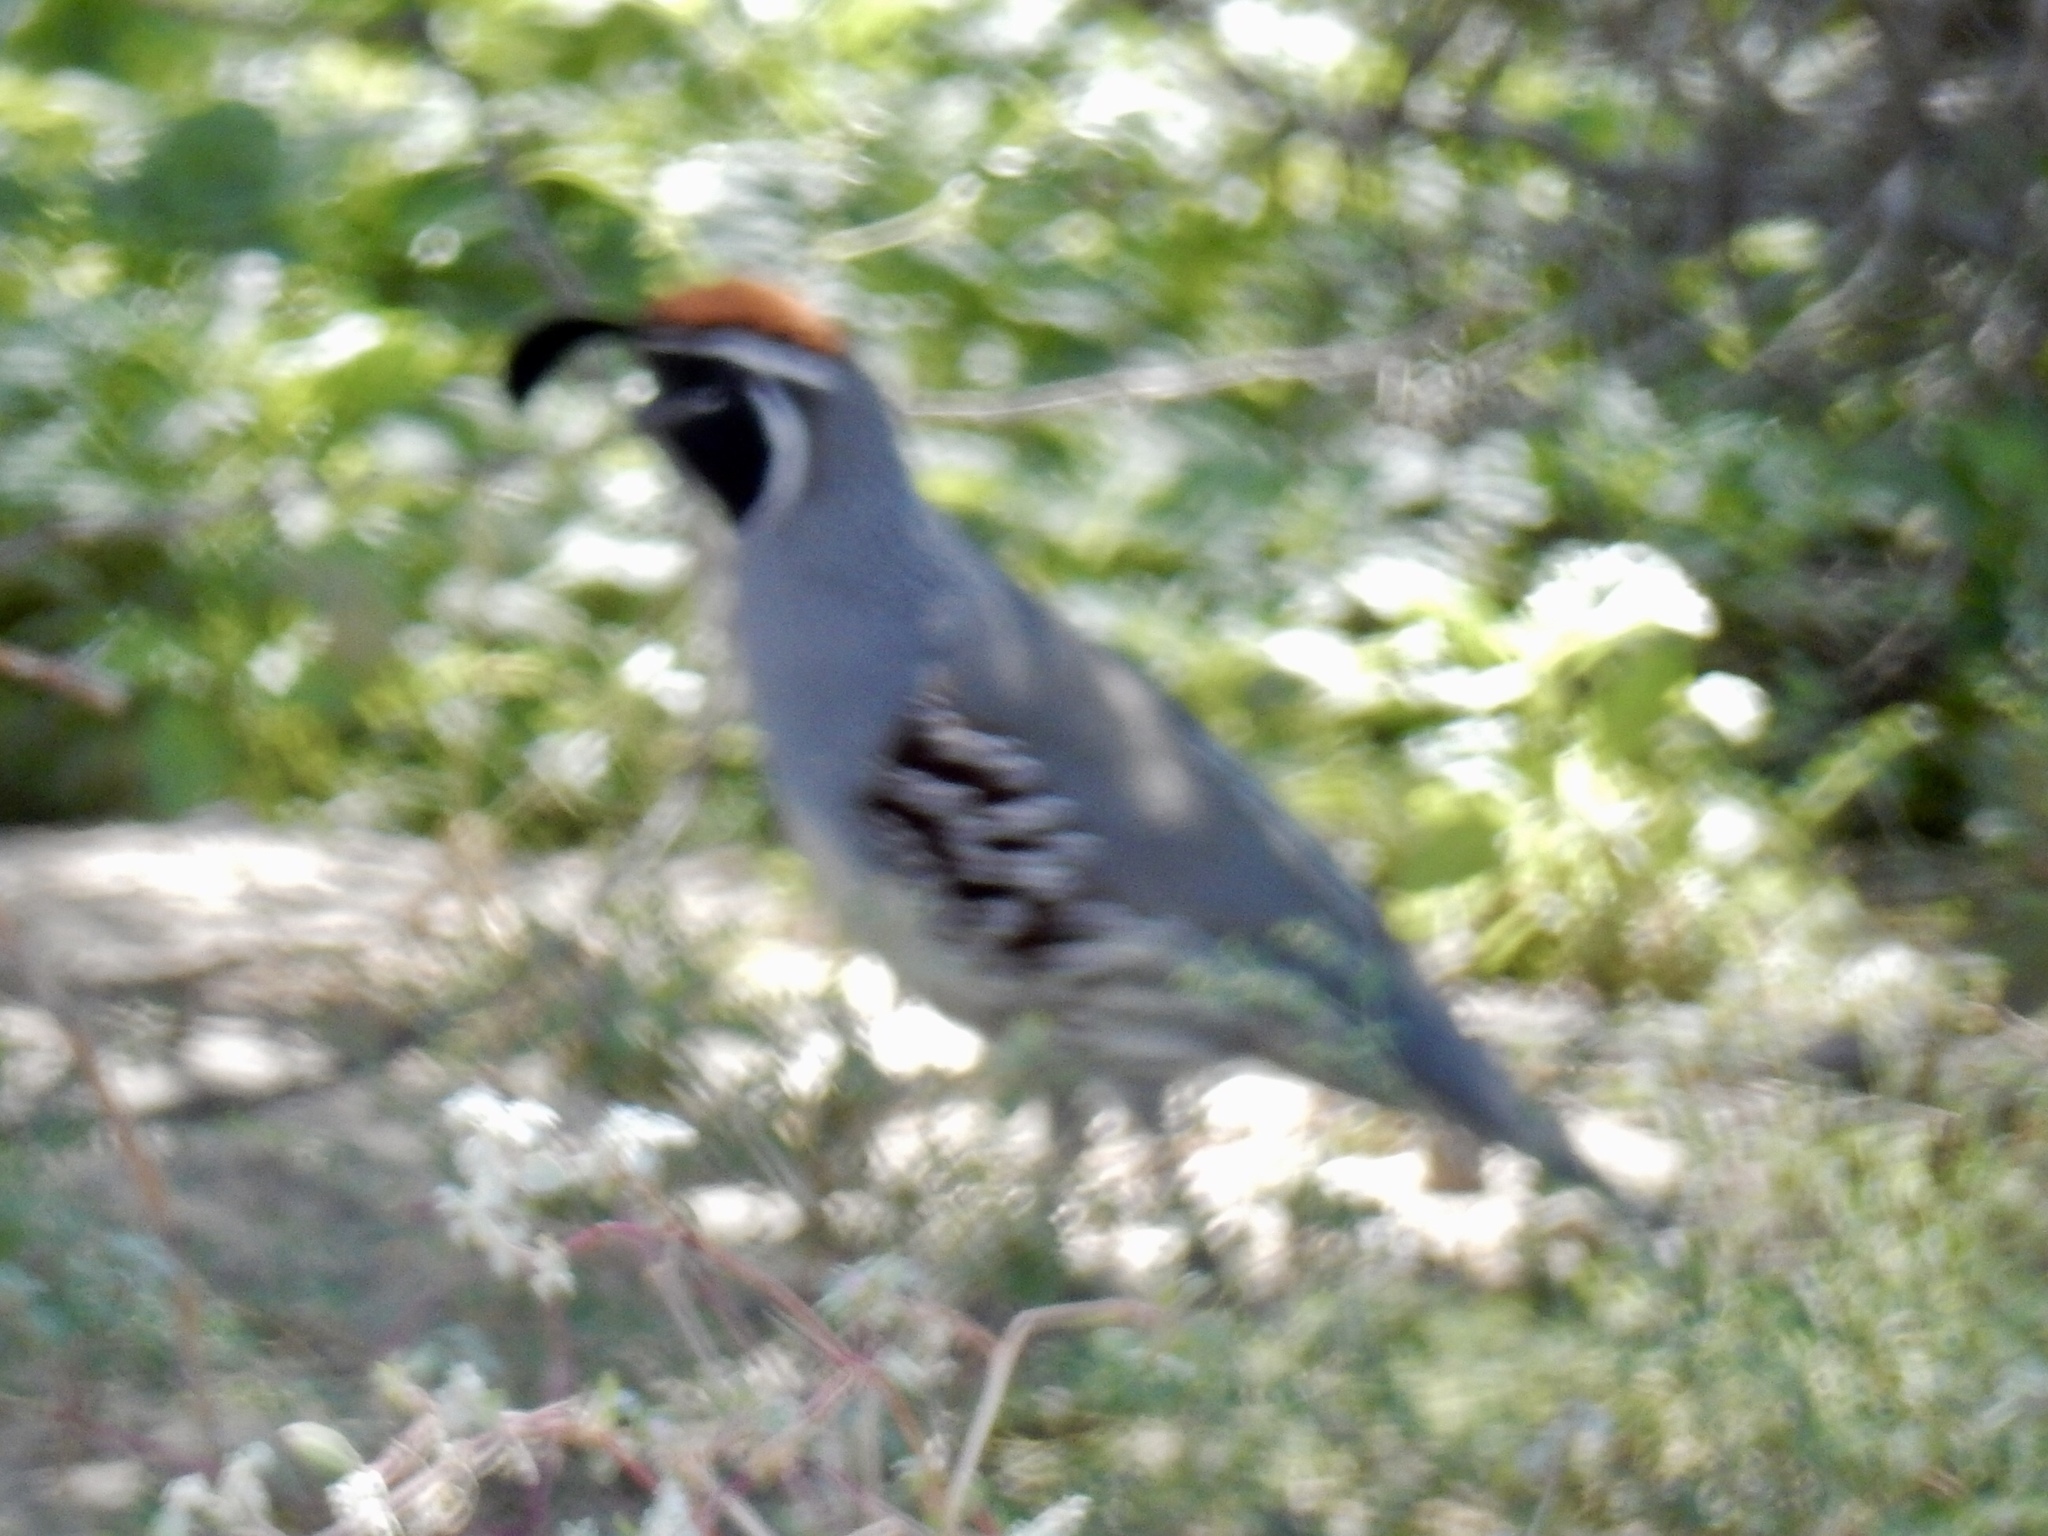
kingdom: Animalia
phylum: Chordata
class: Aves
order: Galliformes
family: Odontophoridae
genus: Callipepla
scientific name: Callipepla gambelii
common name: Gambel's quail
